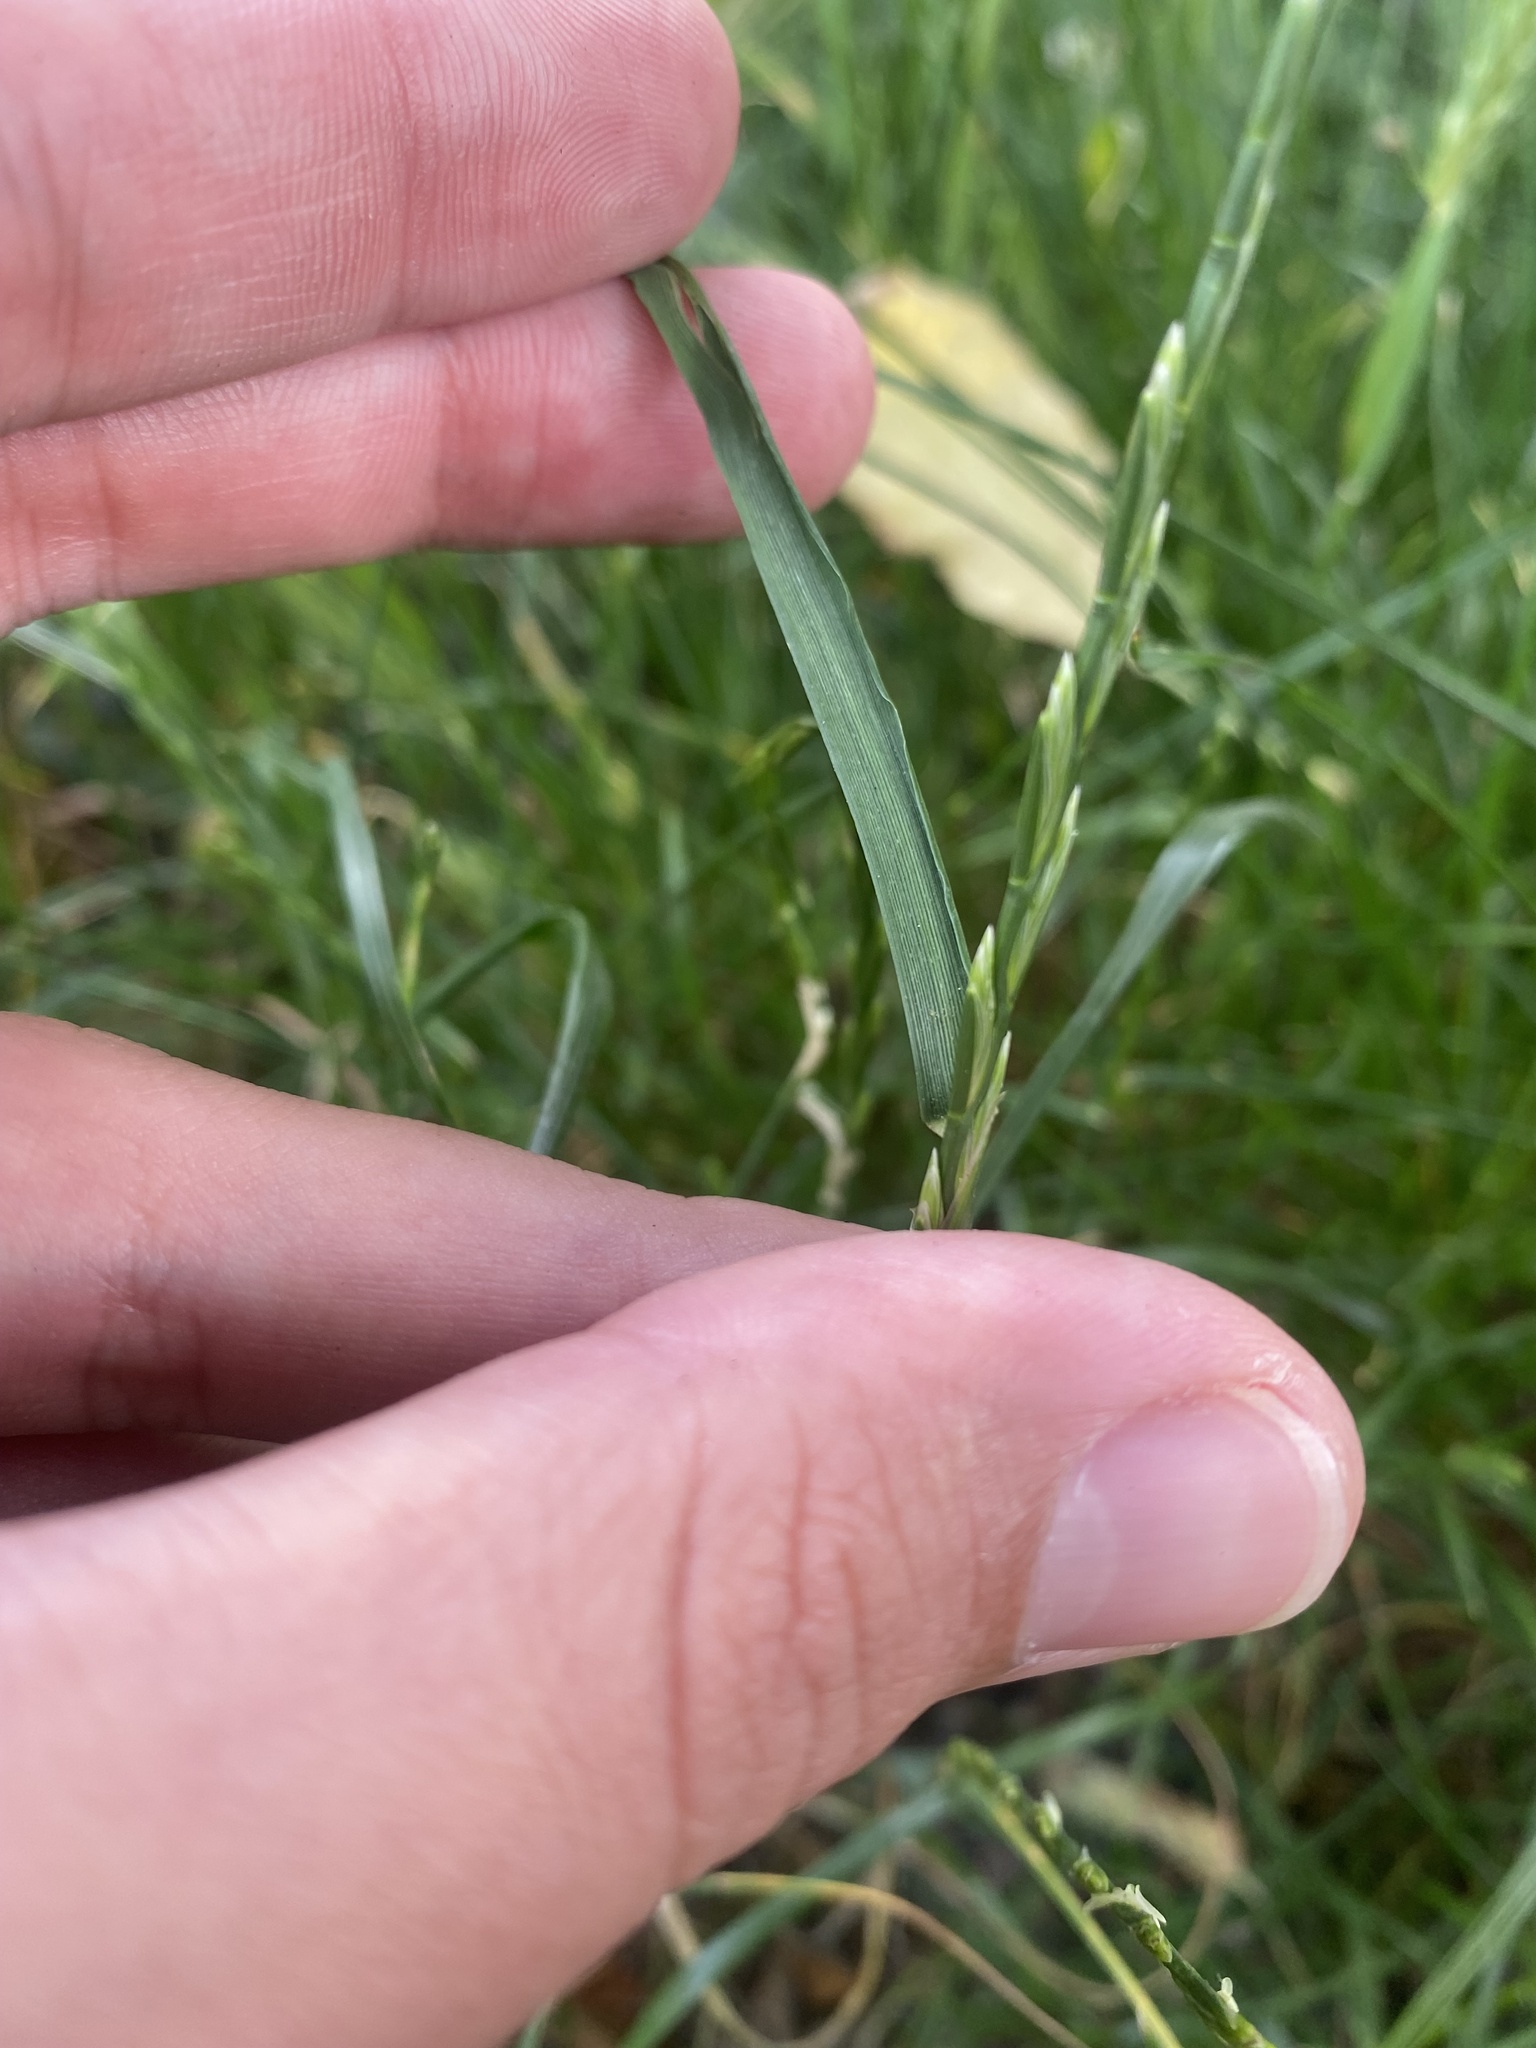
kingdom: Plantae
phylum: Tracheophyta
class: Liliopsida
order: Poales
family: Poaceae
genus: Lolium
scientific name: Lolium perenne
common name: Perennial ryegrass
